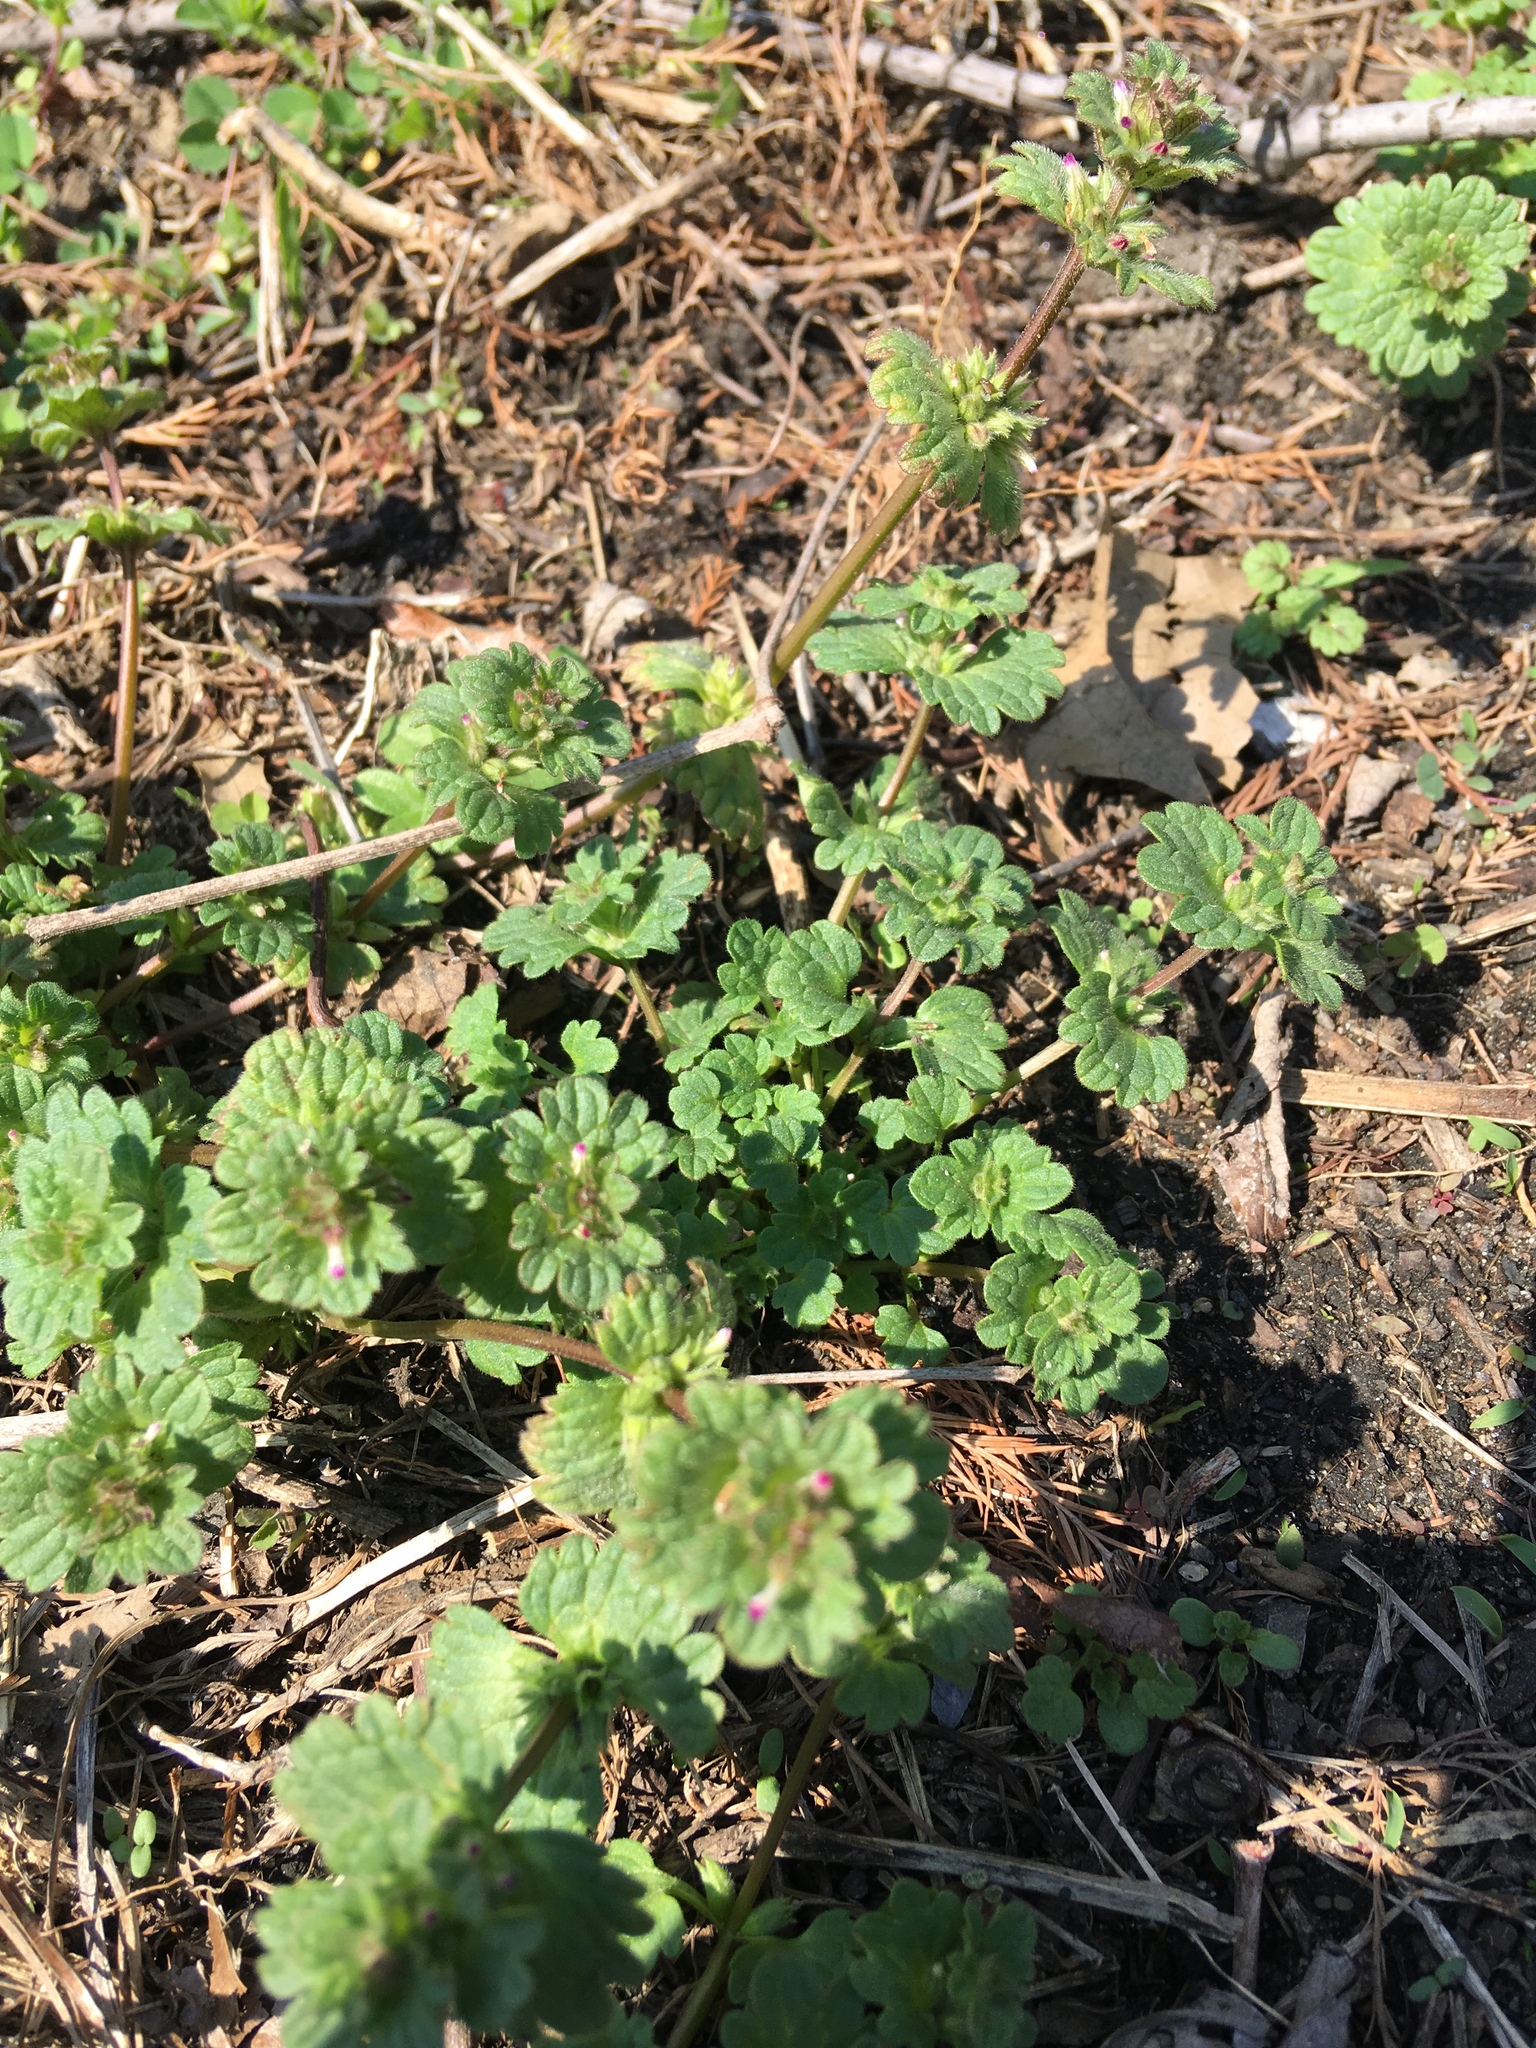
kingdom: Plantae
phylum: Tracheophyta
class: Magnoliopsida
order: Lamiales
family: Lamiaceae
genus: Lamium
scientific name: Lamium amplexicaule
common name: Henbit dead-nettle
